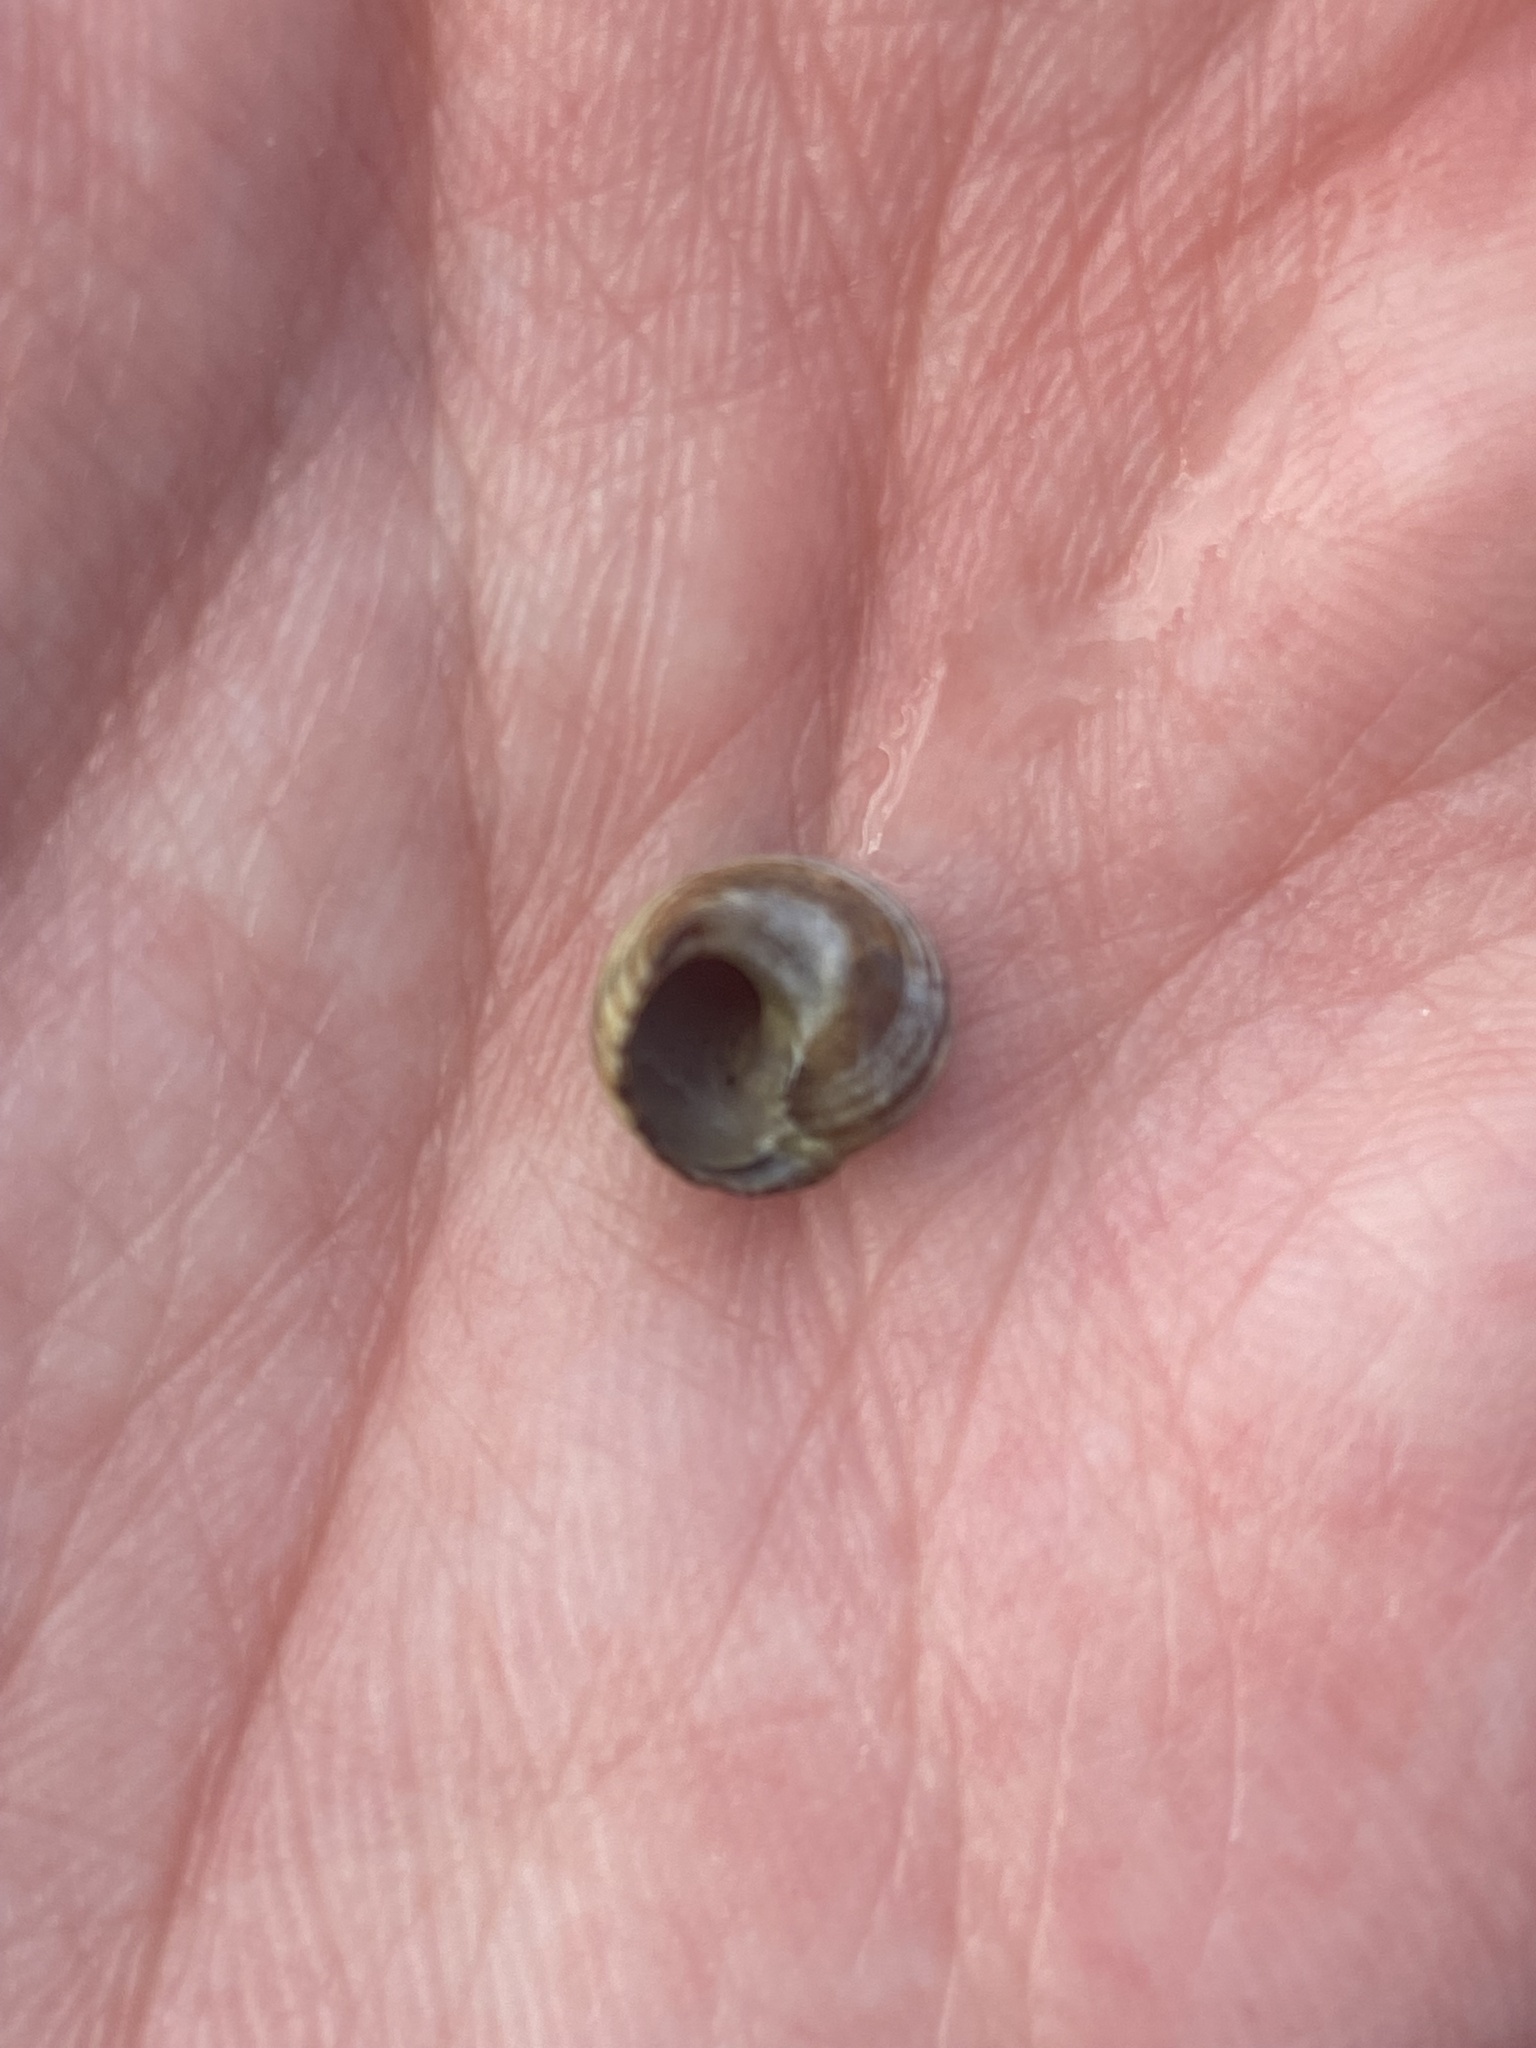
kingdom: Animalia
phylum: Mollusca
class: Gastropoda
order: Littorinimorpha
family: Littorinidae
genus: Littorina
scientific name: Littorina littorea
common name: Common periwinkle
